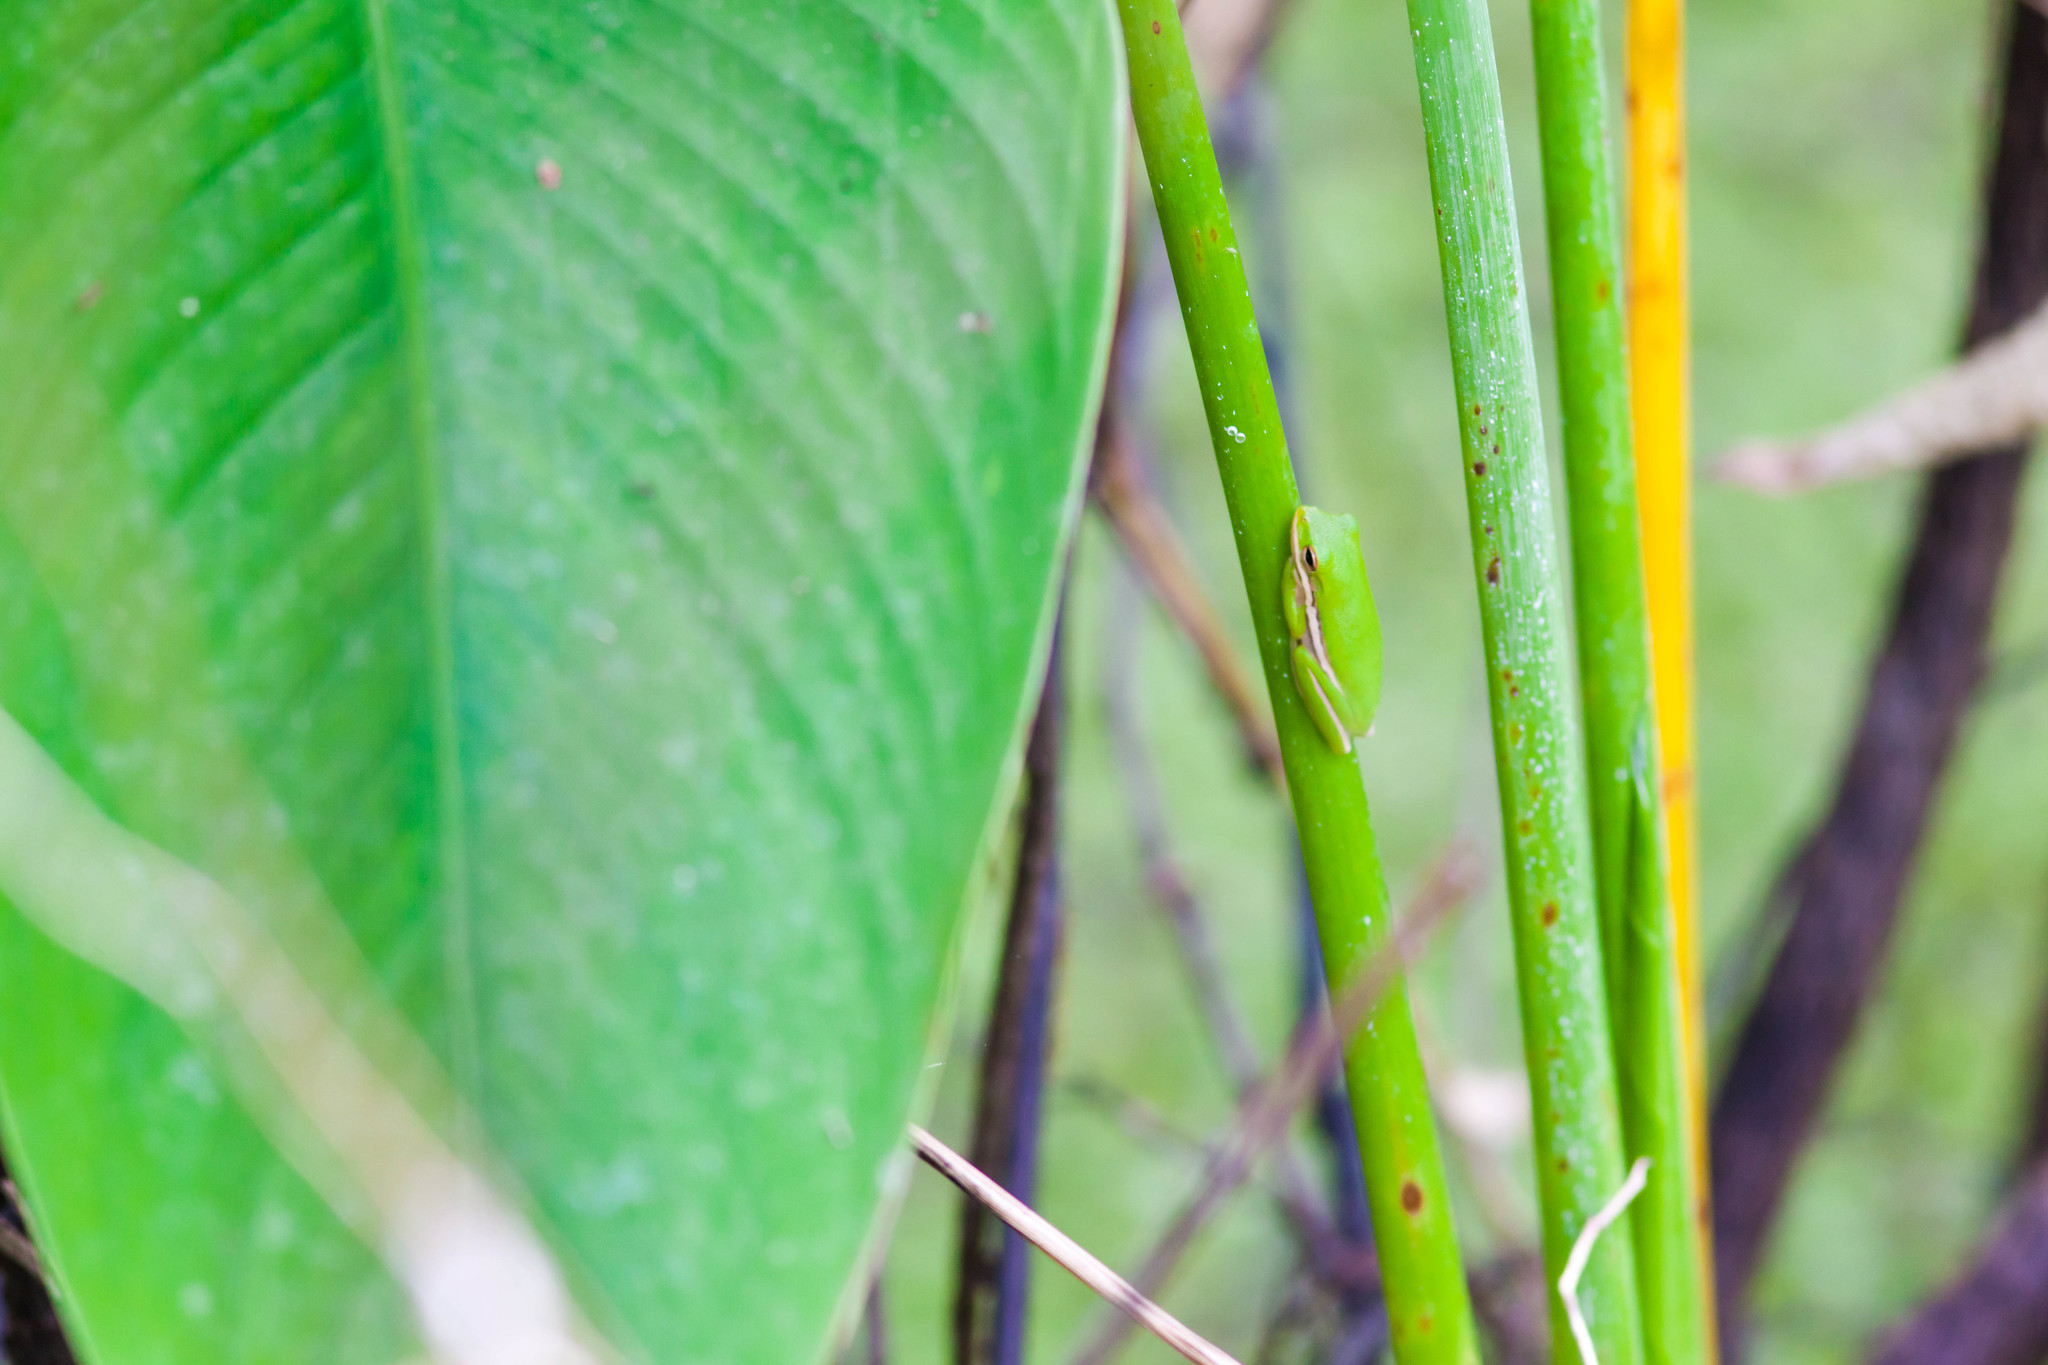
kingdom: Animalia
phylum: Chordata
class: Amphibia
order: Anura
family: Hylidae
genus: Dryophytes
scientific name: Dryophytes cinereus
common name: Green treefrog
